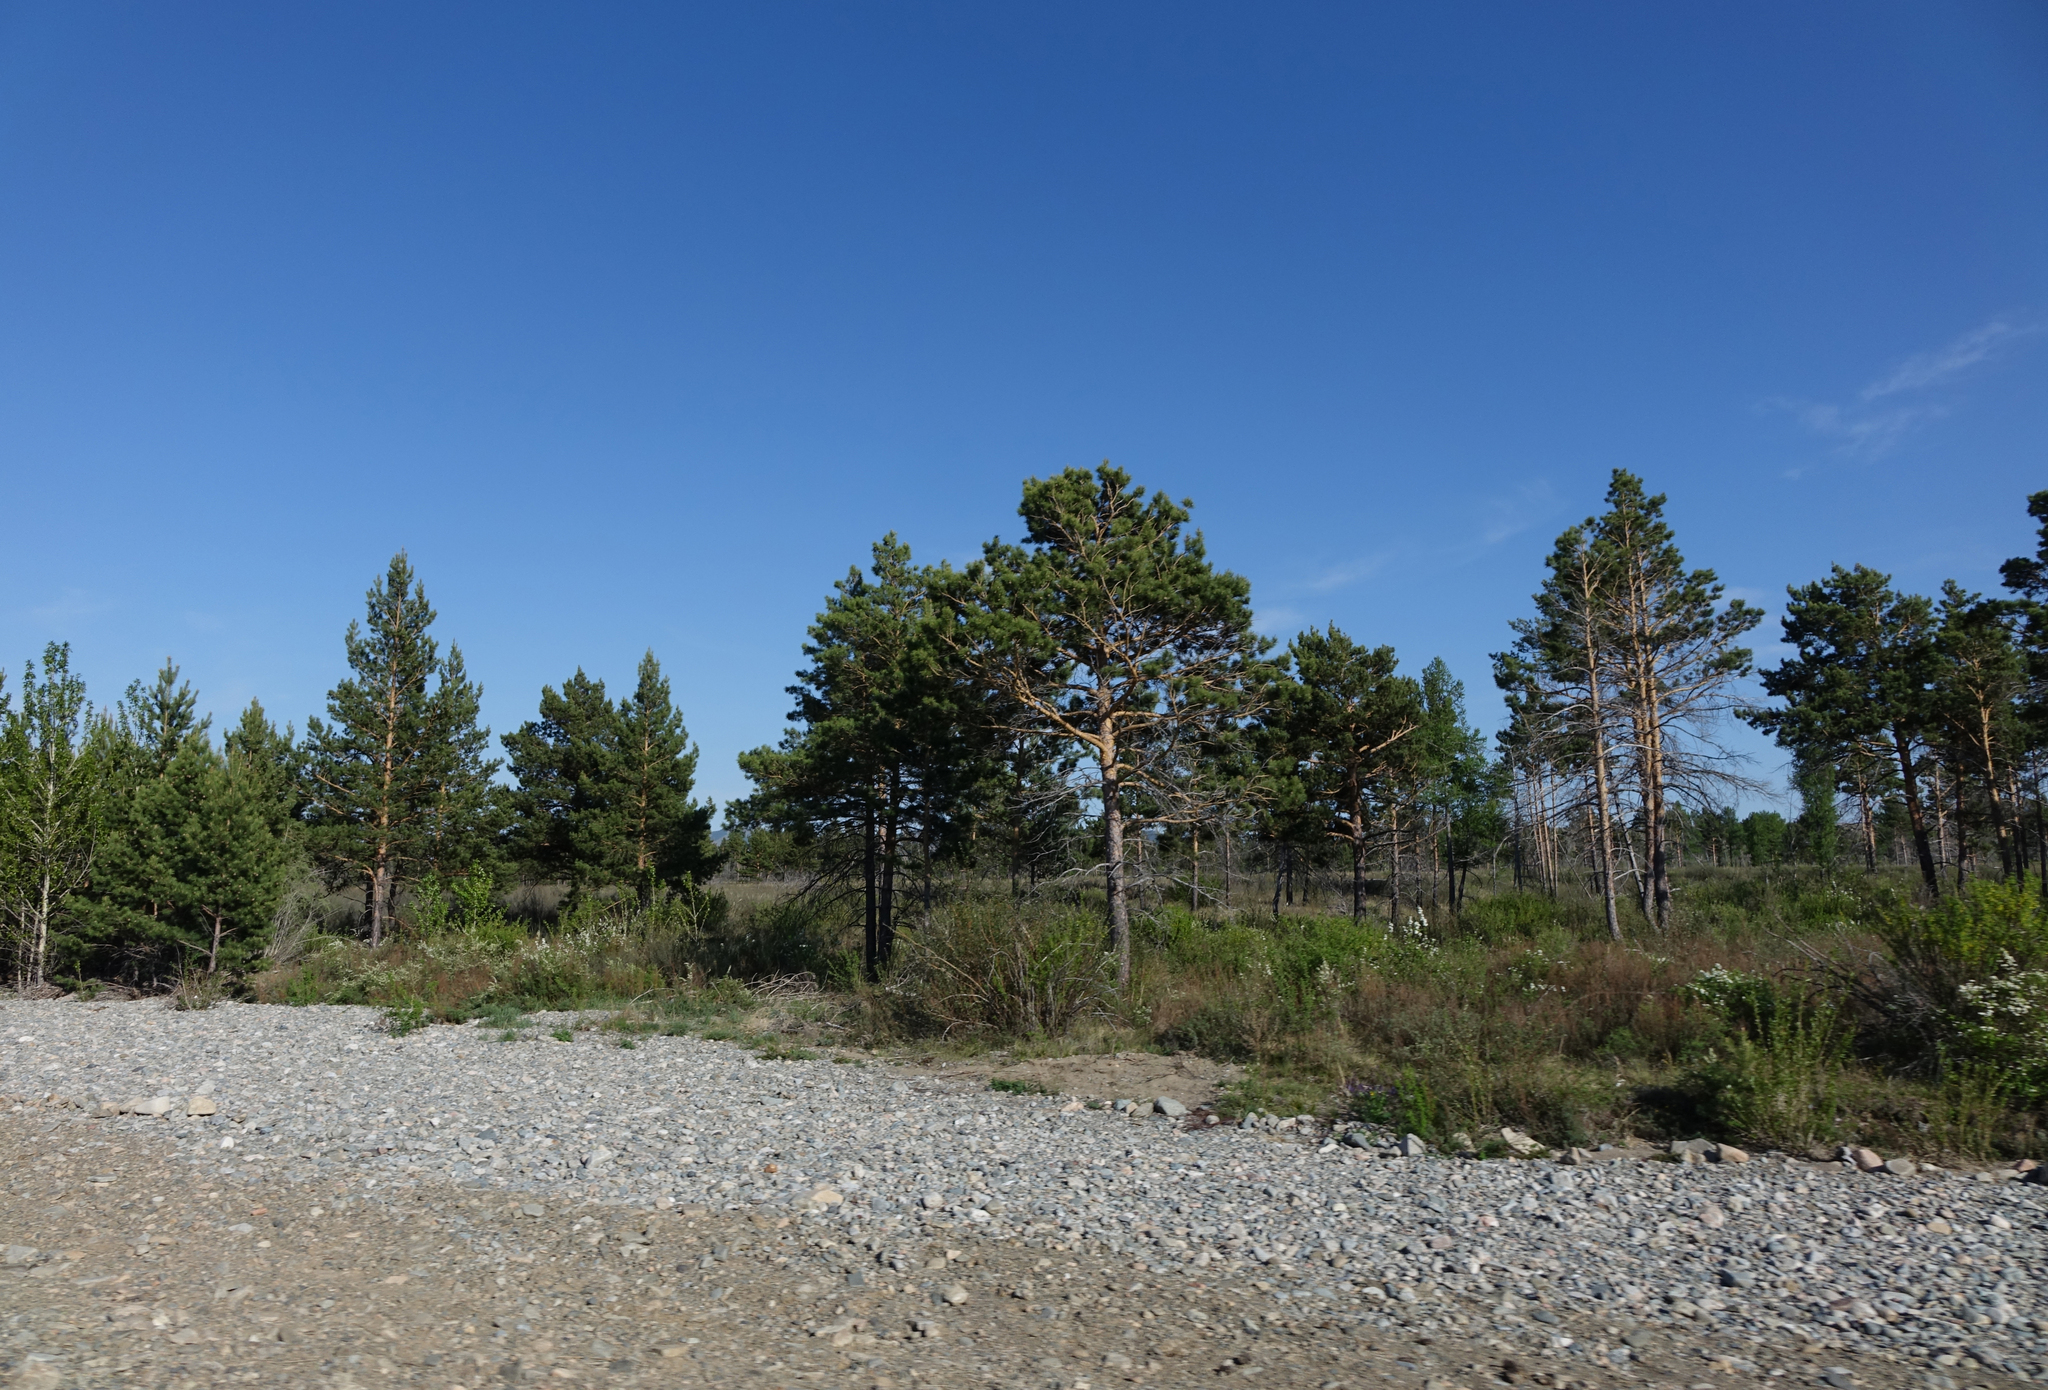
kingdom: Plantae
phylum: Tracheophyta
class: Pinopsida
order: Pinales
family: Pinaceae
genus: Pinus
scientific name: Pinus sylvestris
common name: Scots pine
